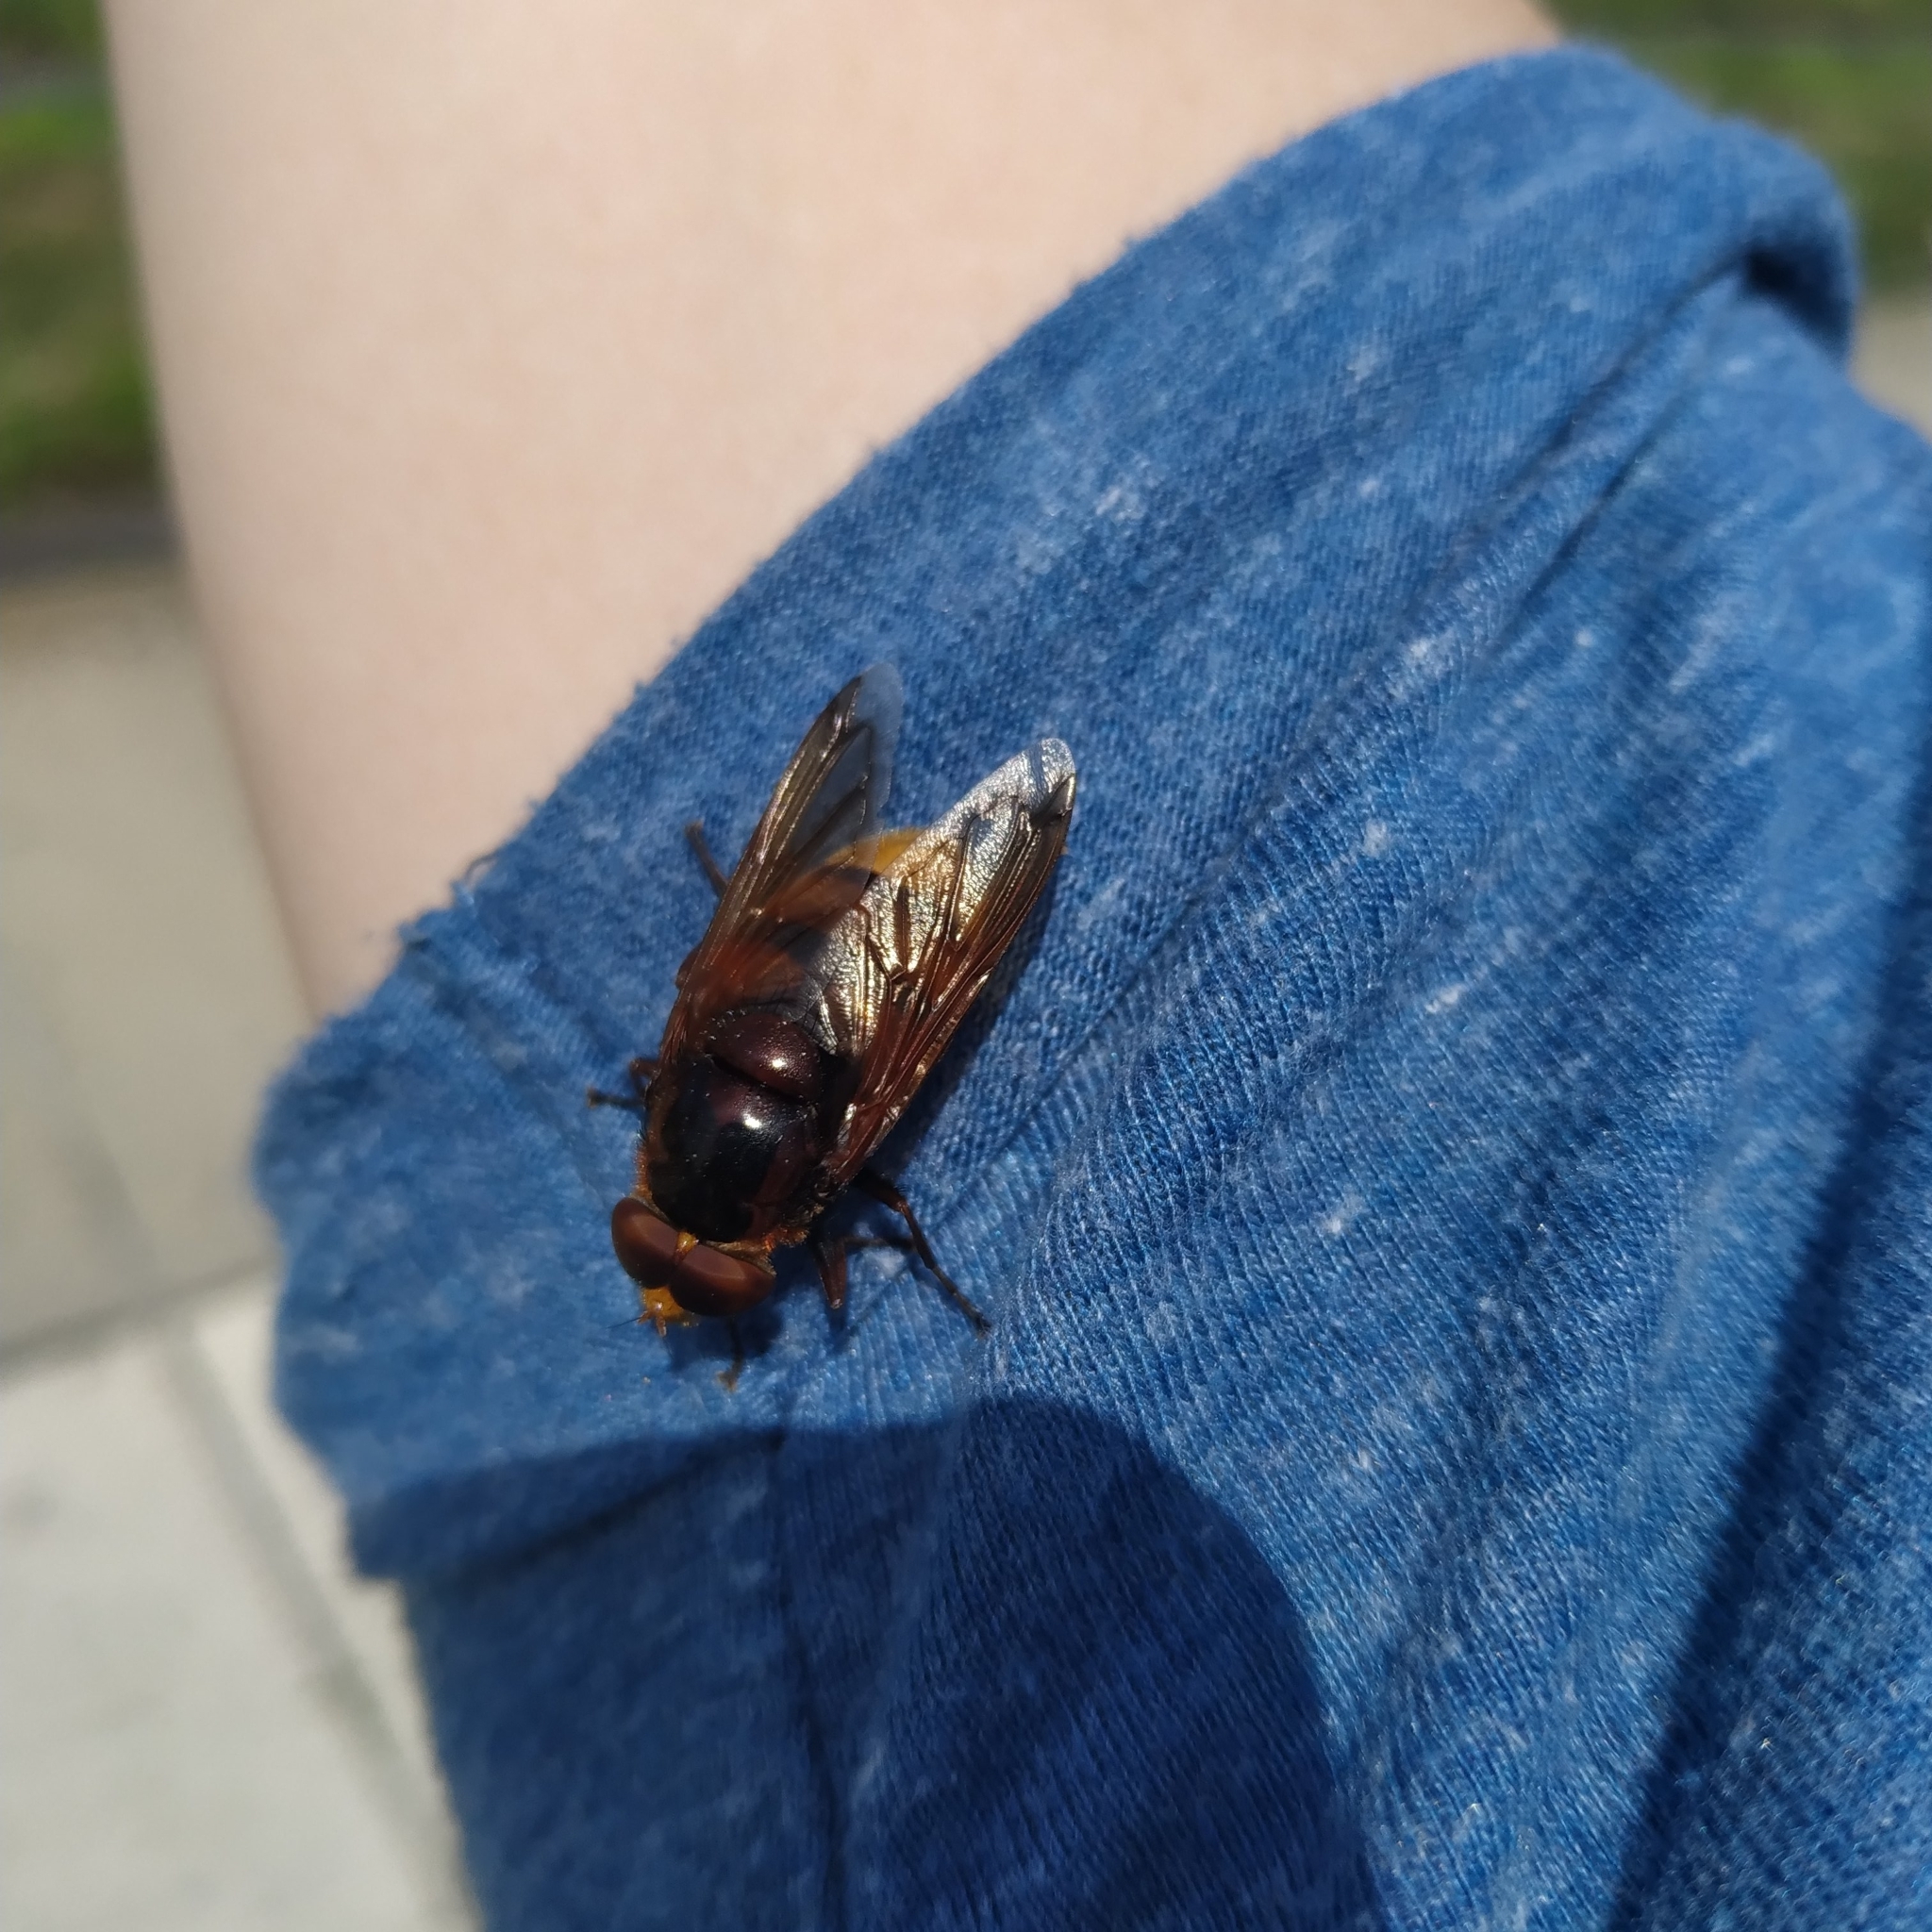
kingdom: Animalia
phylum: Arthropoda
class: Insecta
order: Diptera
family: Syrphidae
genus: Volucella
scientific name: Volucella zonaria
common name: Hornet hoverfly
